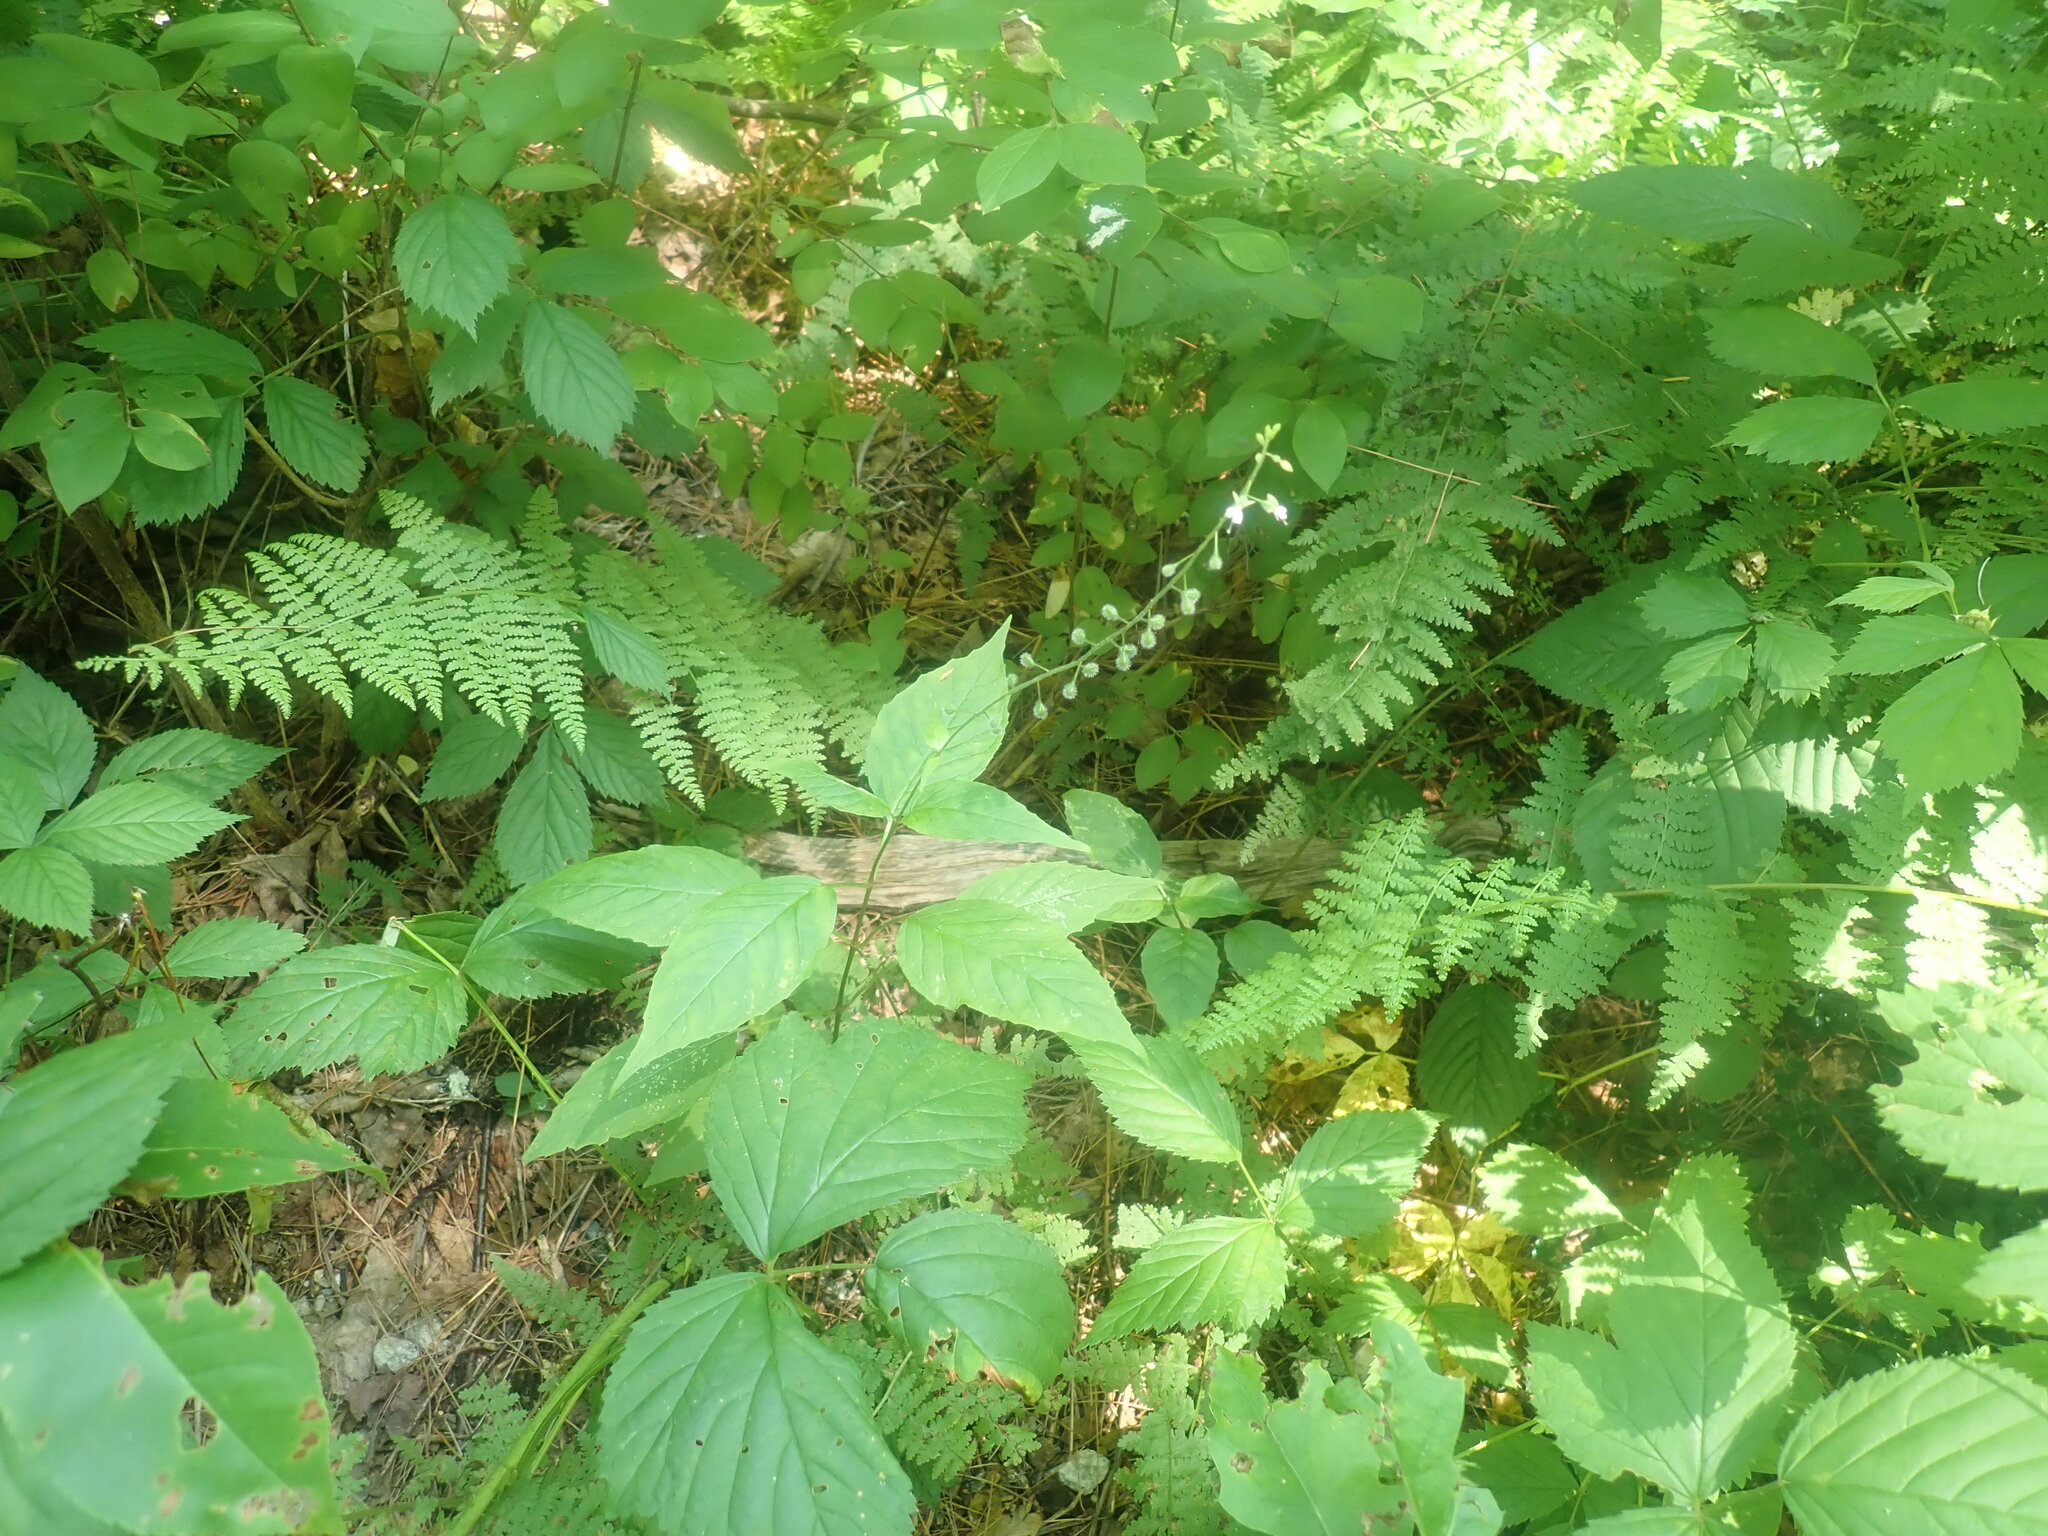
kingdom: Plantae
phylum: Tracheophyta
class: Magnoliopsida
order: Myrtales
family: Onagraceae
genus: Circaea
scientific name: Circaea canadensis
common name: Broad-leaved enchanter's nightshade
